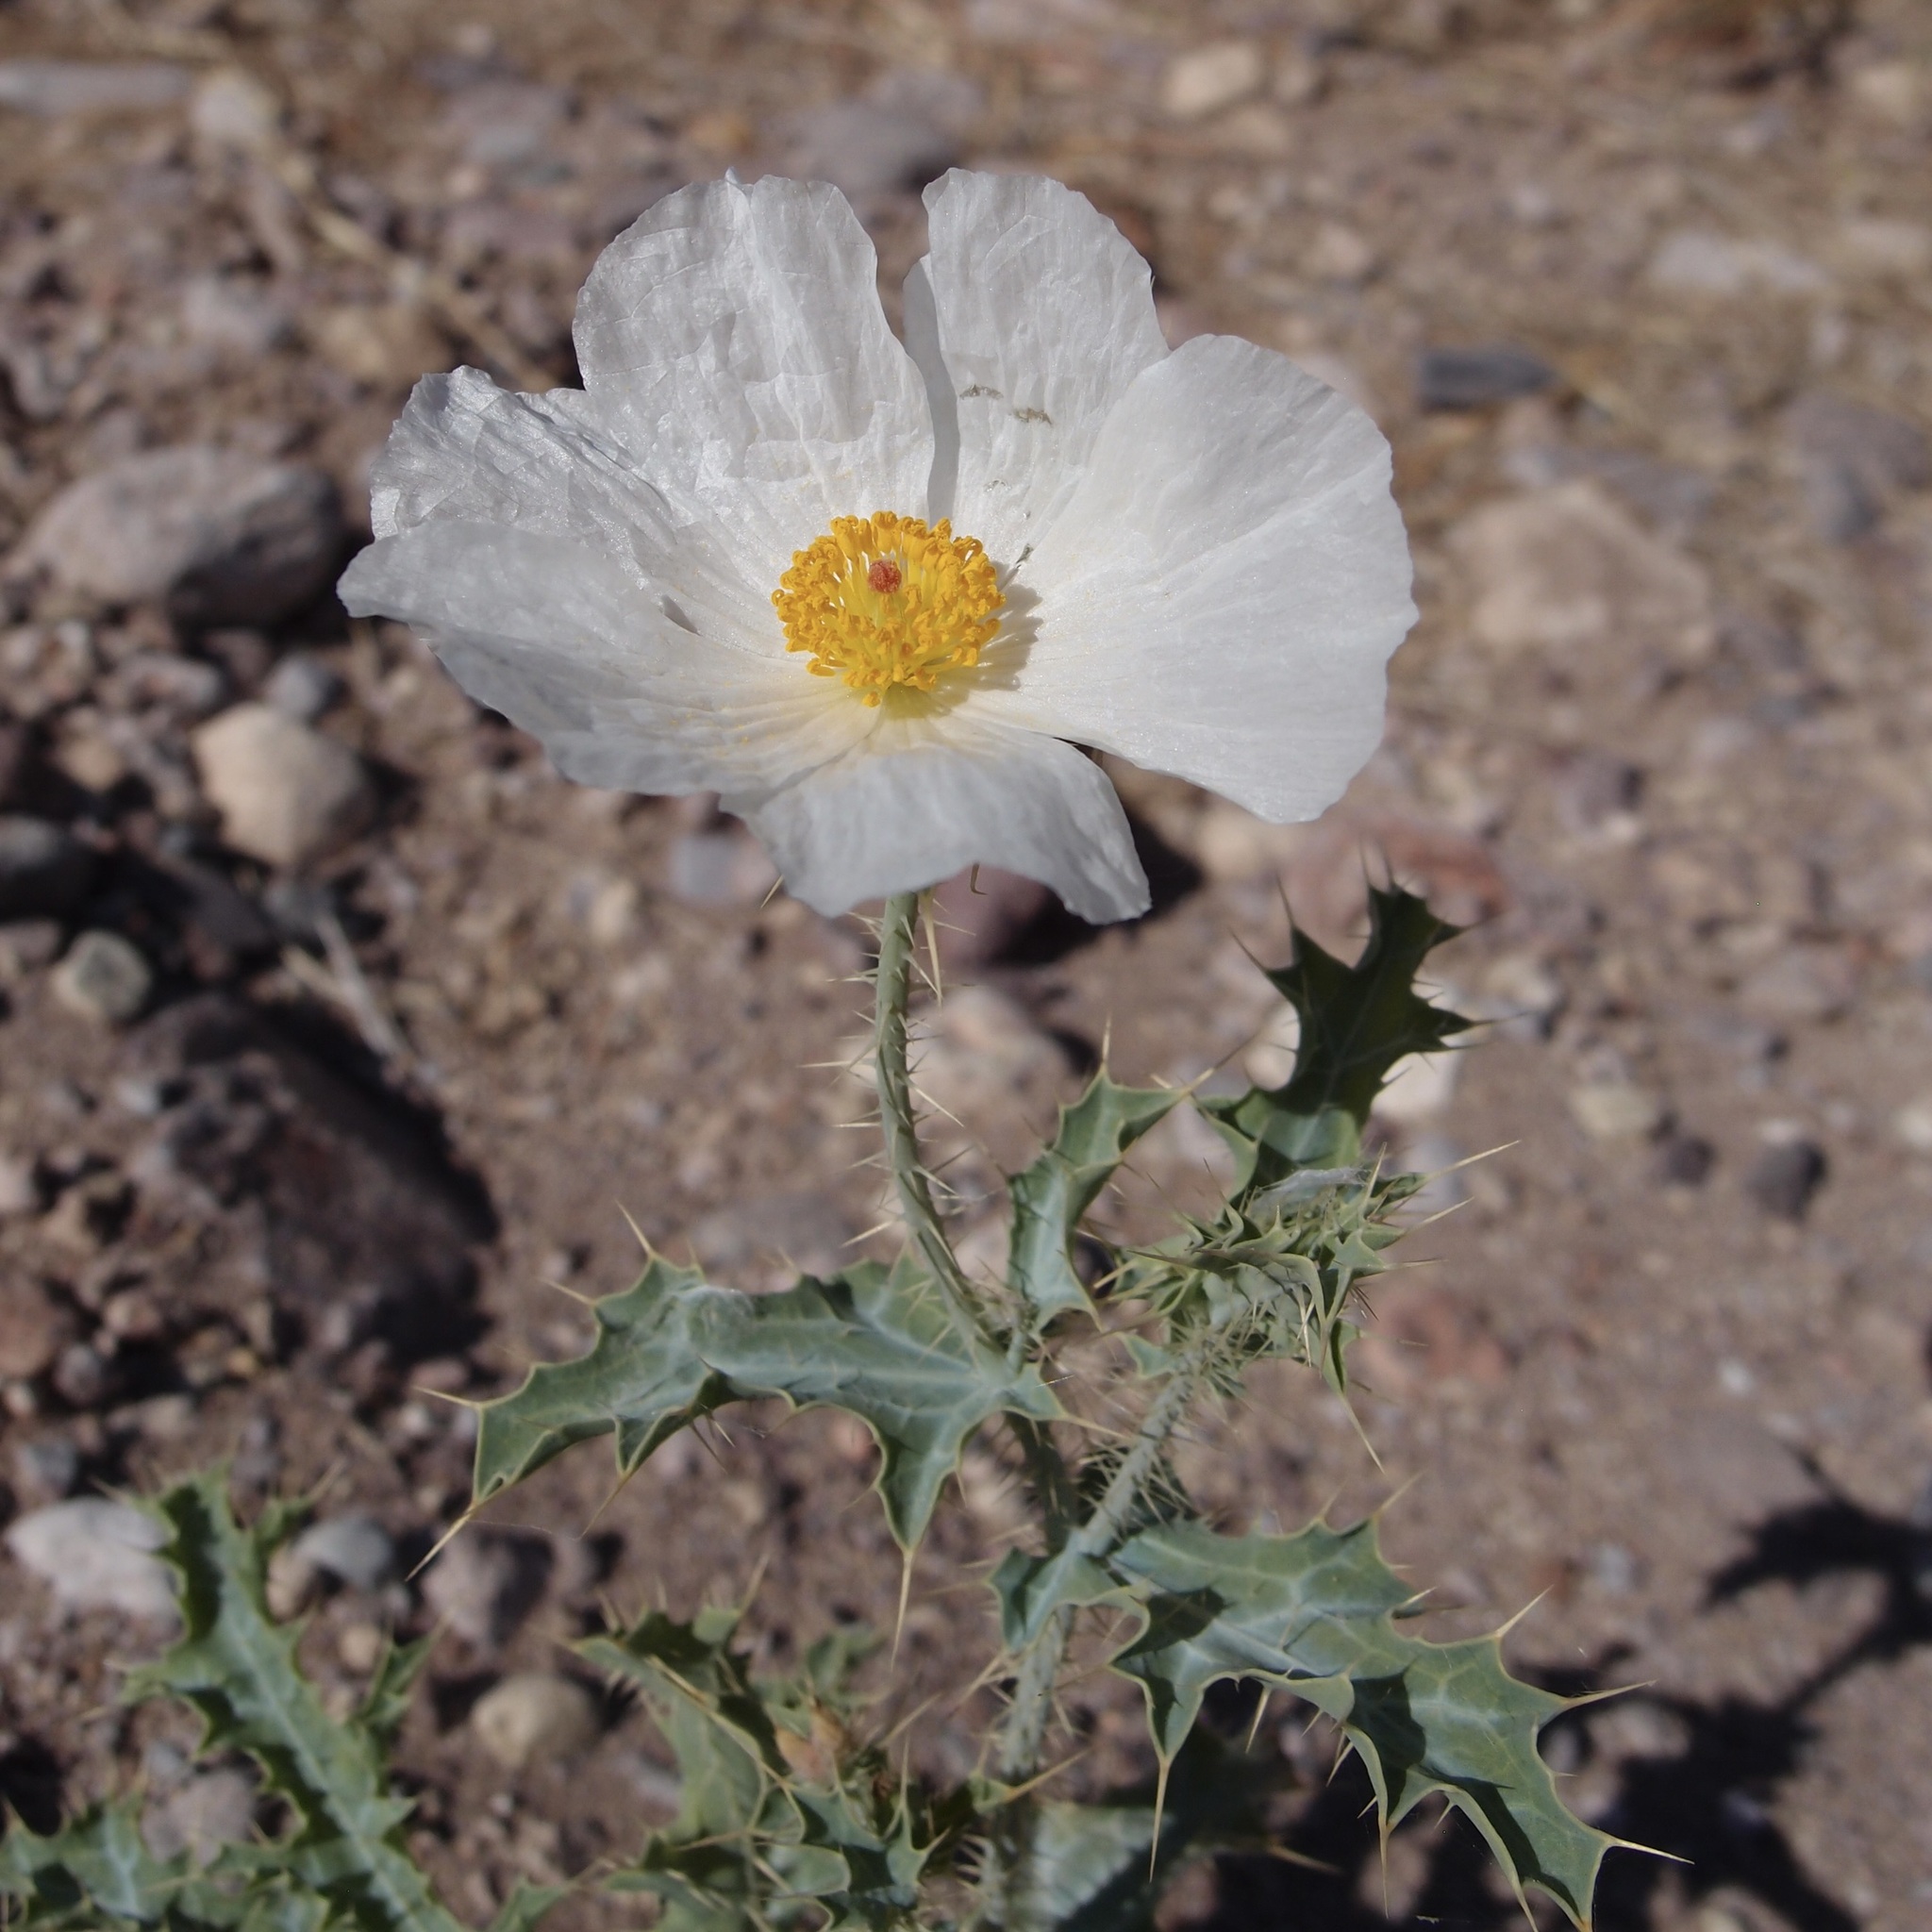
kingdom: Plantae
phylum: Tracheophyta
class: Magnoliopsida
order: Ranunculales
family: Papaveraceae
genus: Argemone
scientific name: Argemone gracilenta
